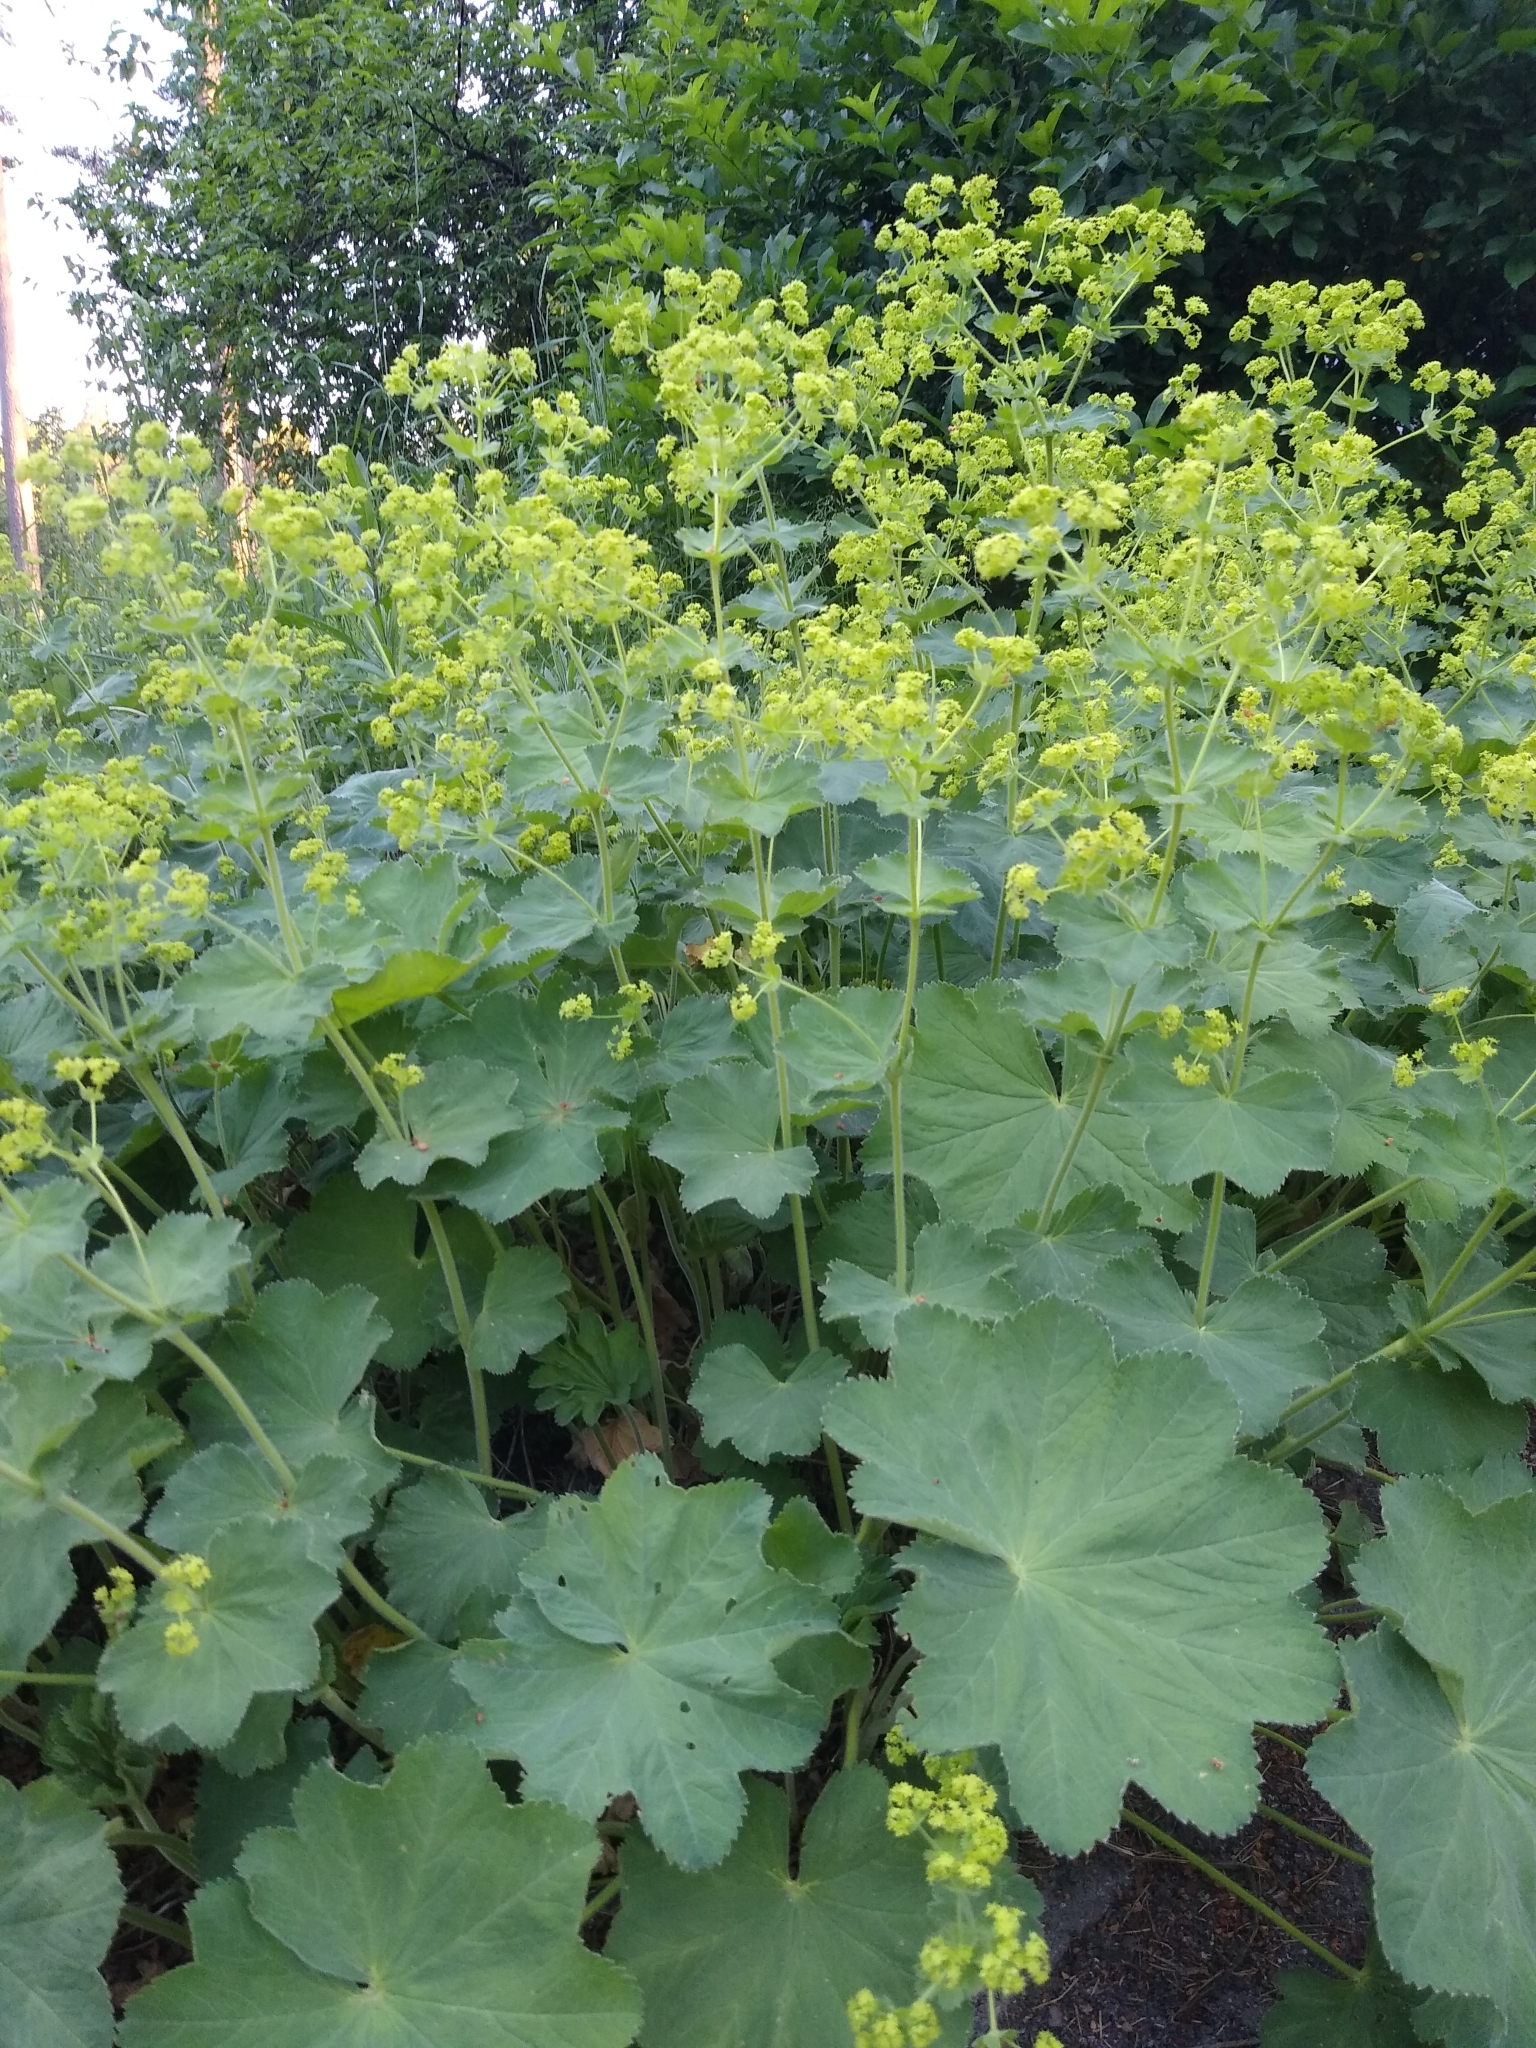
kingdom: Plantae
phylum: Tracheophyta
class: Magnoliopsida
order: Rosales
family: Rosaceae
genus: Alchemilla
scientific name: Alchemilla mollis
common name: Lady's-mantle
